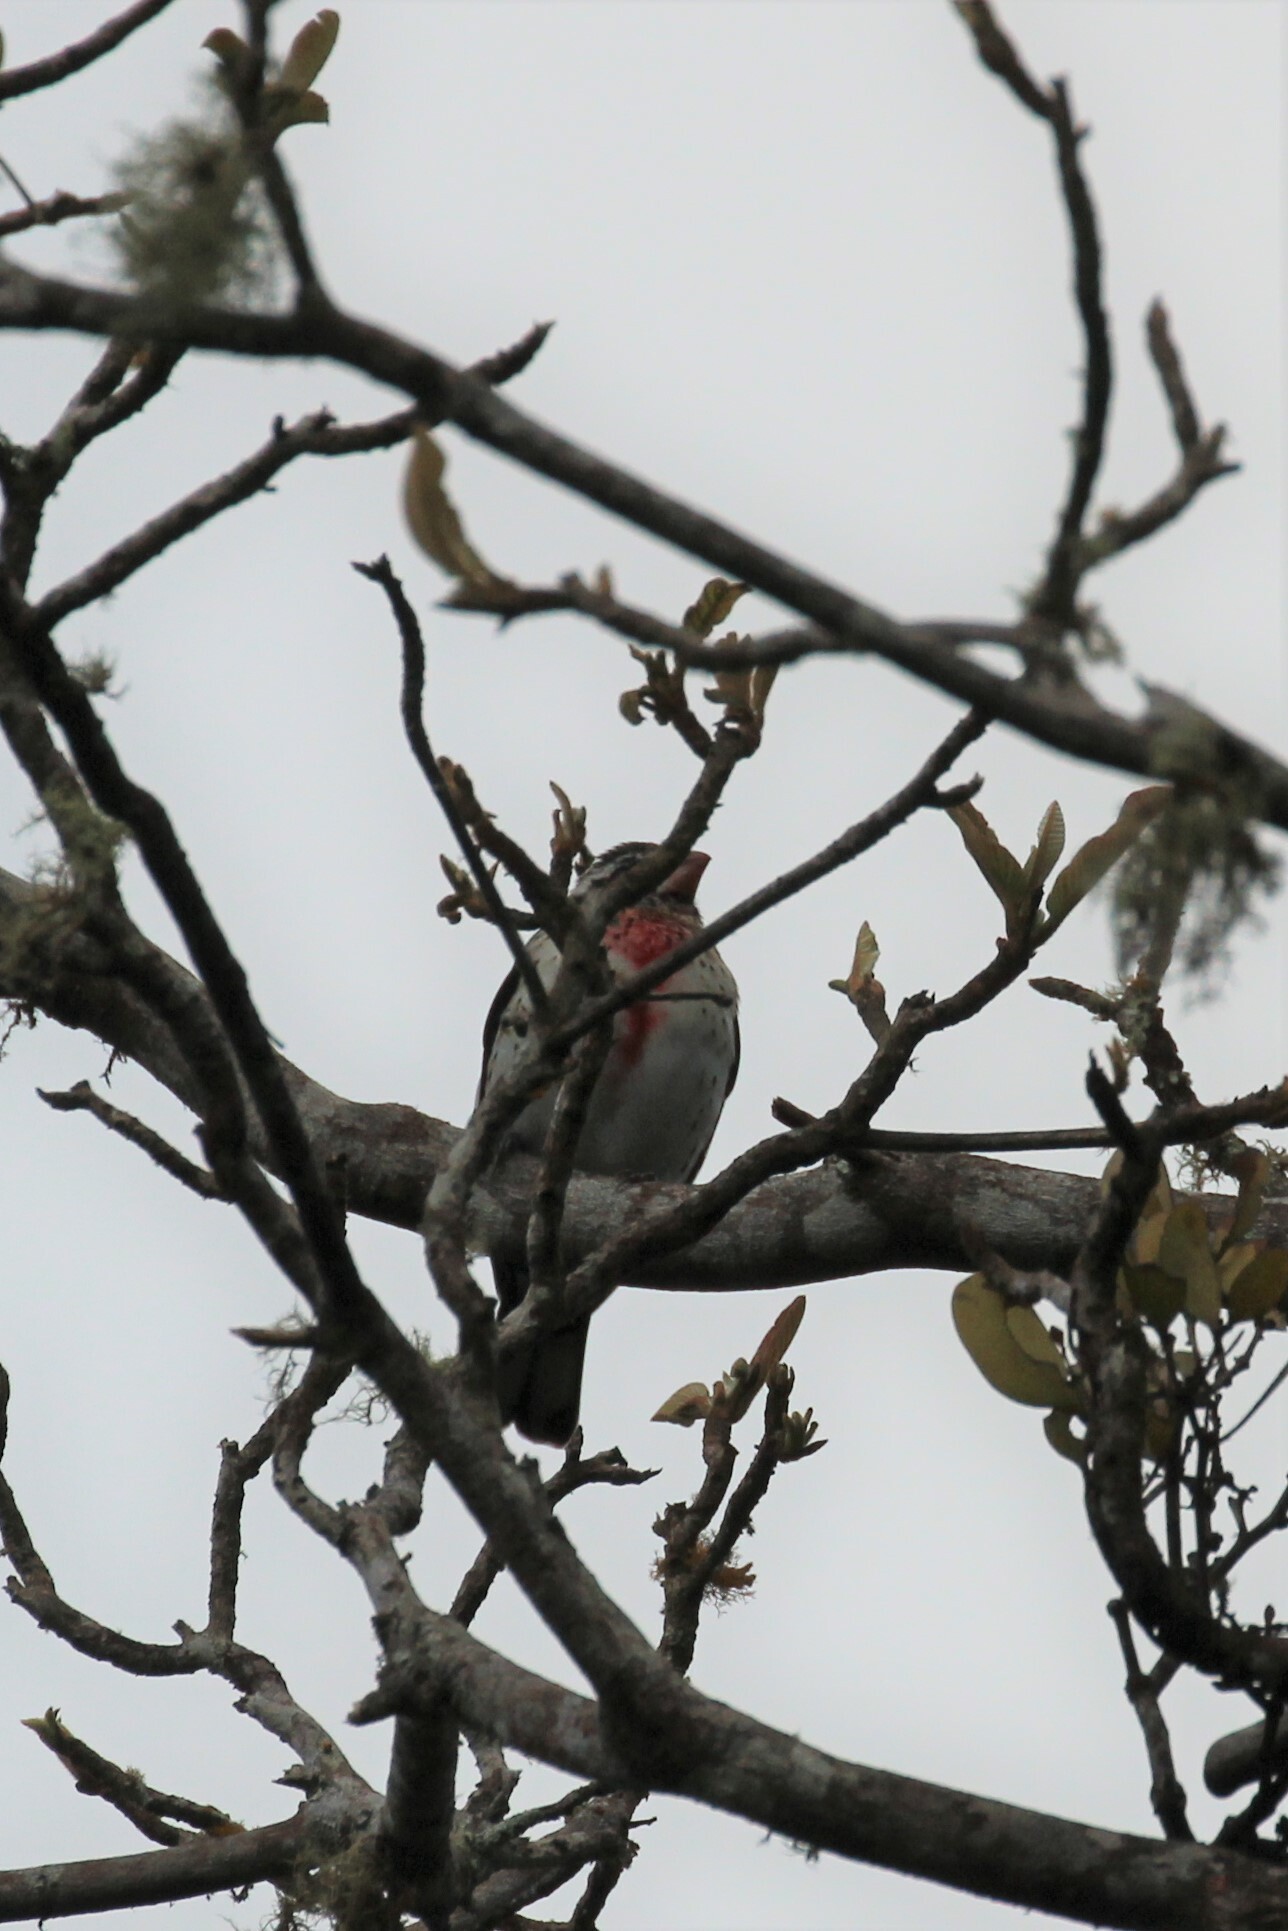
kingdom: Animalia
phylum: Chordata
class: Aves
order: Passeriformes
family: Cardinalidae
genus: Pheucticus
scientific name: Pheucticus ludovicianus
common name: Rose-breasted grosbeak
